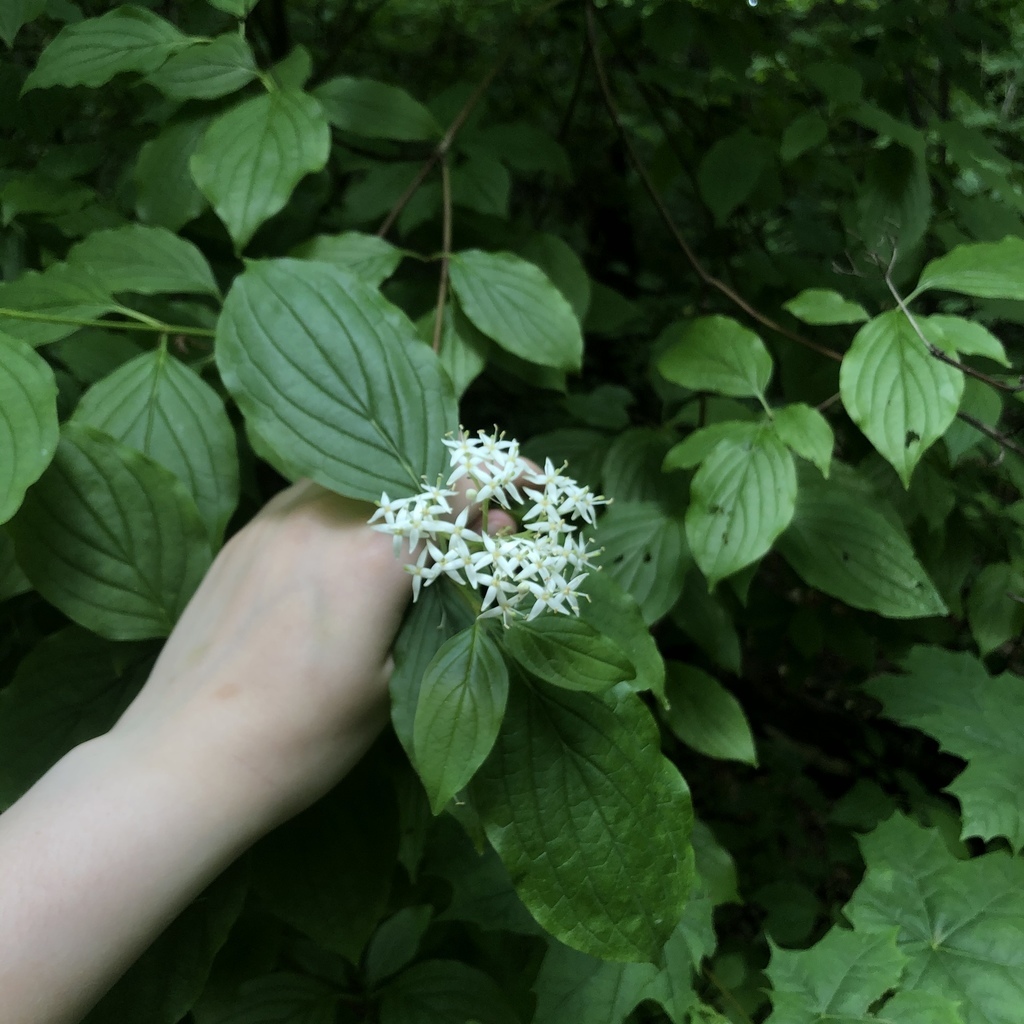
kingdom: Plantae
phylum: Tracheophyta
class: Magnoliopsida
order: Cornales
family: Cornaceae
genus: Cornus
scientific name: Cornus sanguinea
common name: Dogwood
